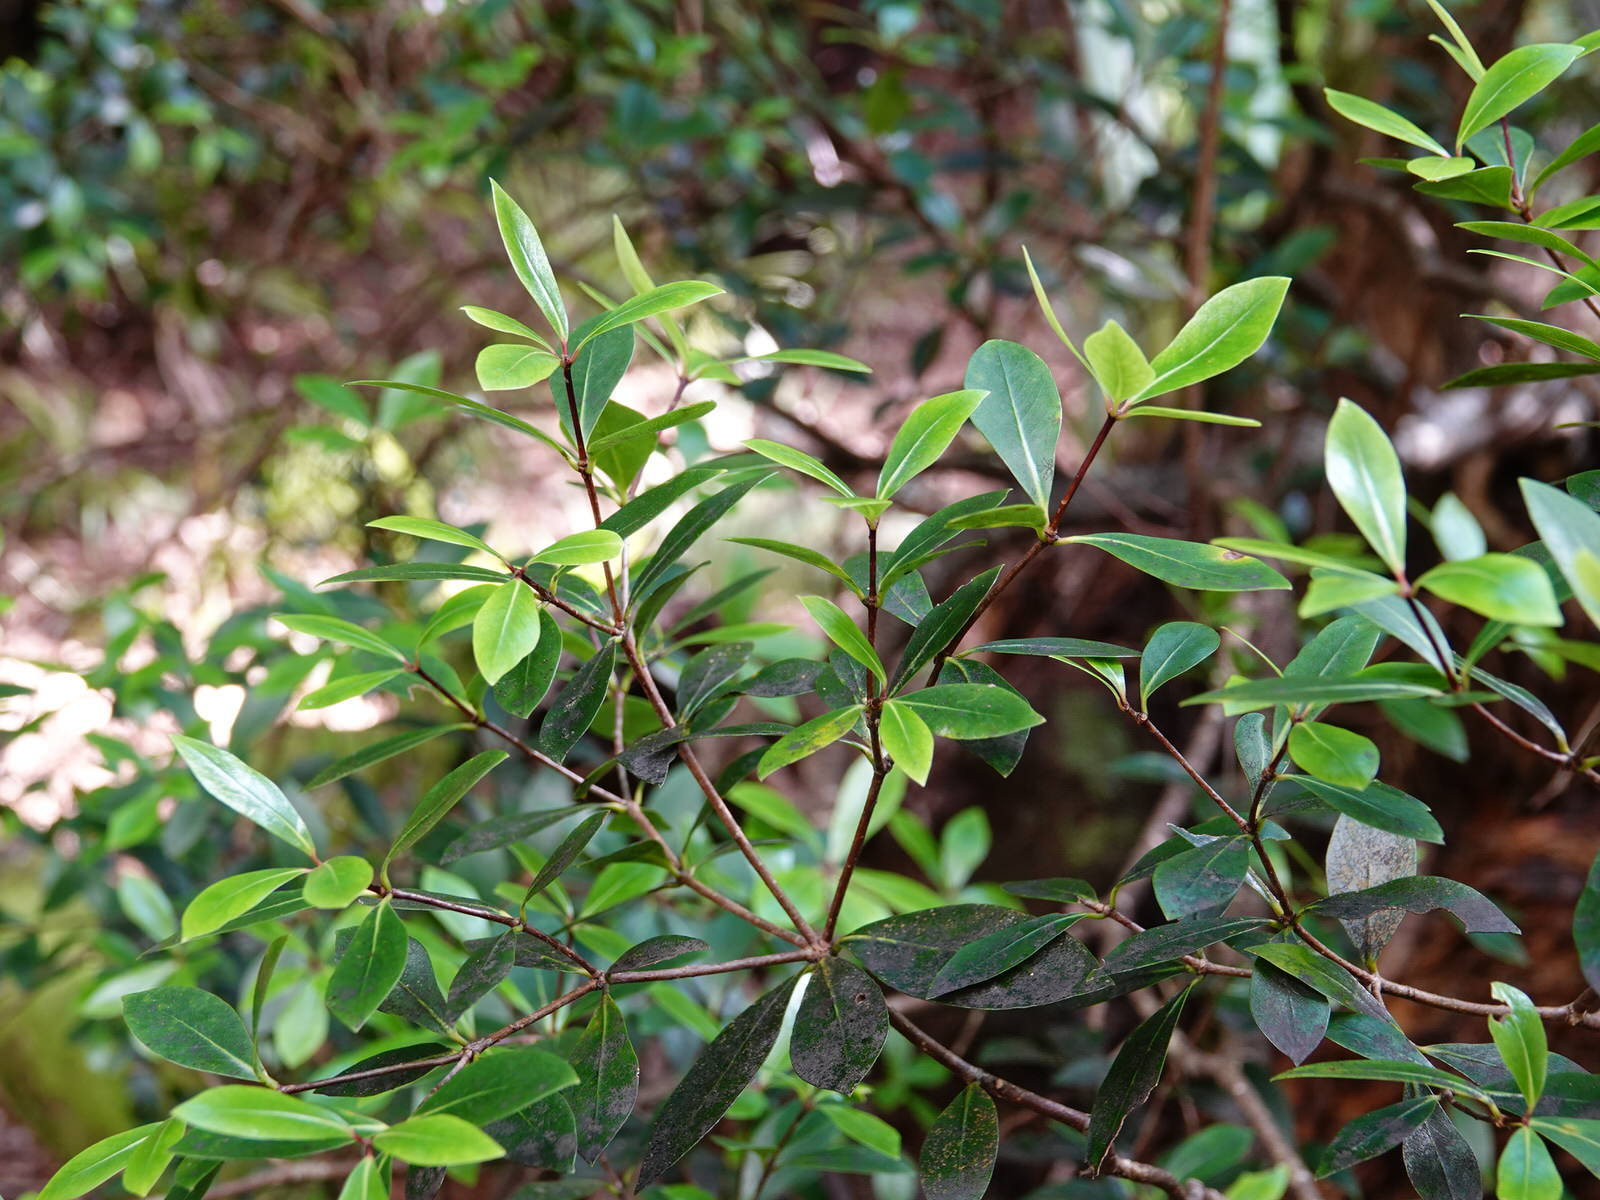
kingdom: Plantae
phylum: Tracheophyta
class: Magnoliopsida
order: Apiales
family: Pittosporaceae
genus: Pittosporum
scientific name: Pittosporum cornifolium
